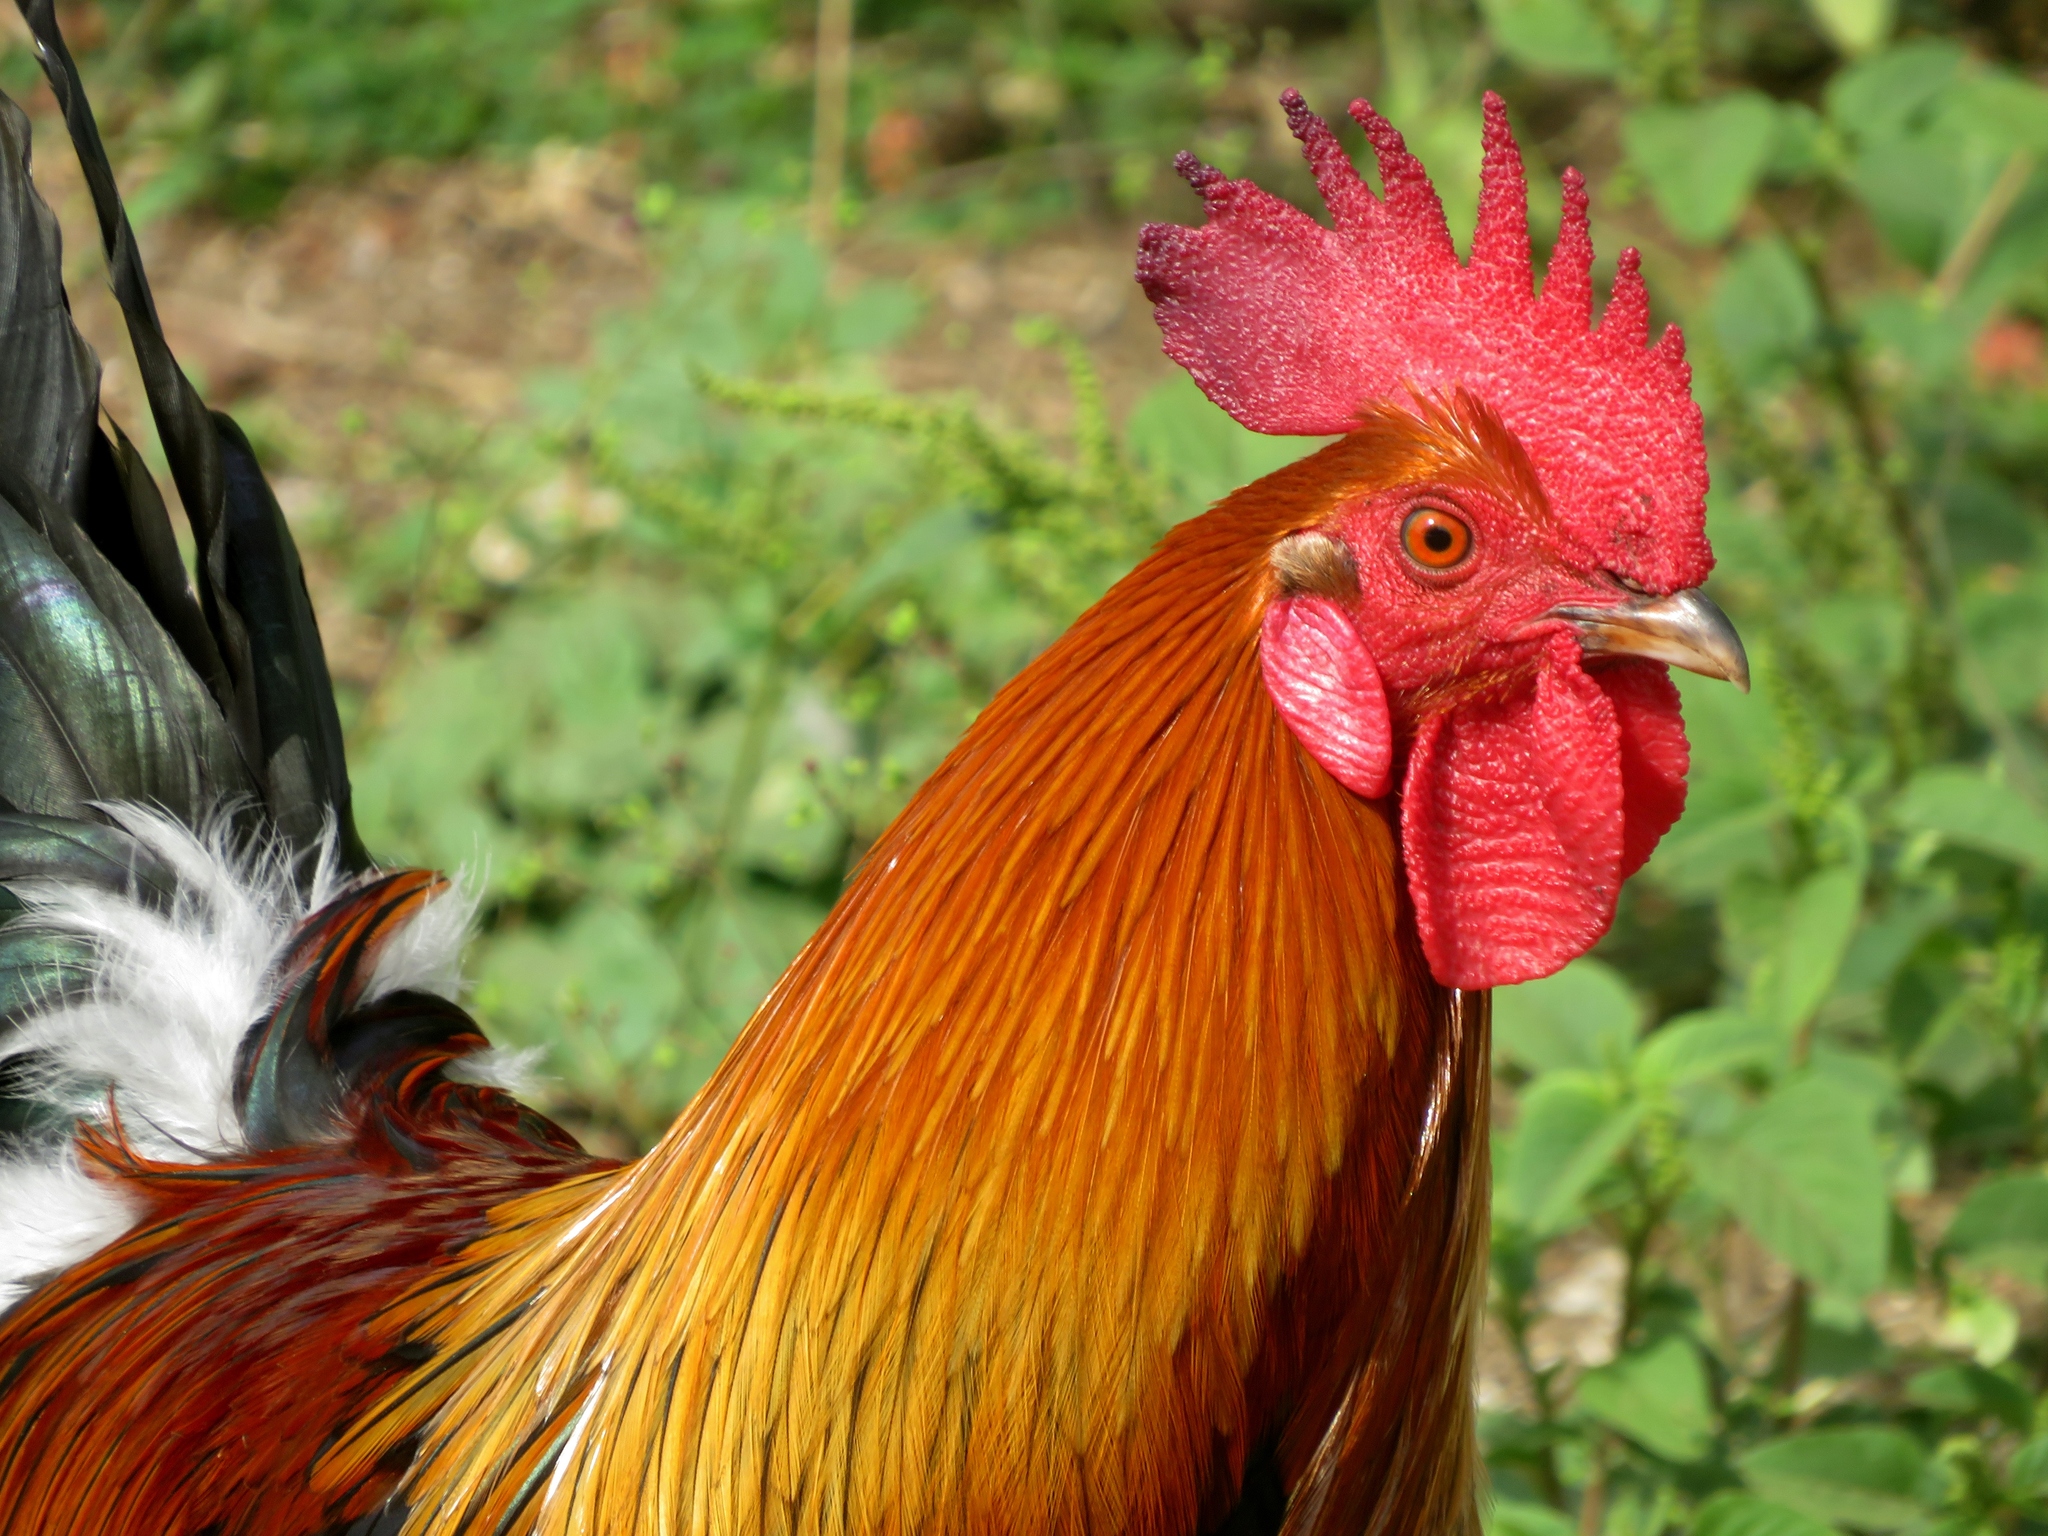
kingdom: Animalia
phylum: Chordata
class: Aves
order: Galliformes
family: Phasianidae
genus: Gallus
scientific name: Gallus gallus
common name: Red junglefowl
